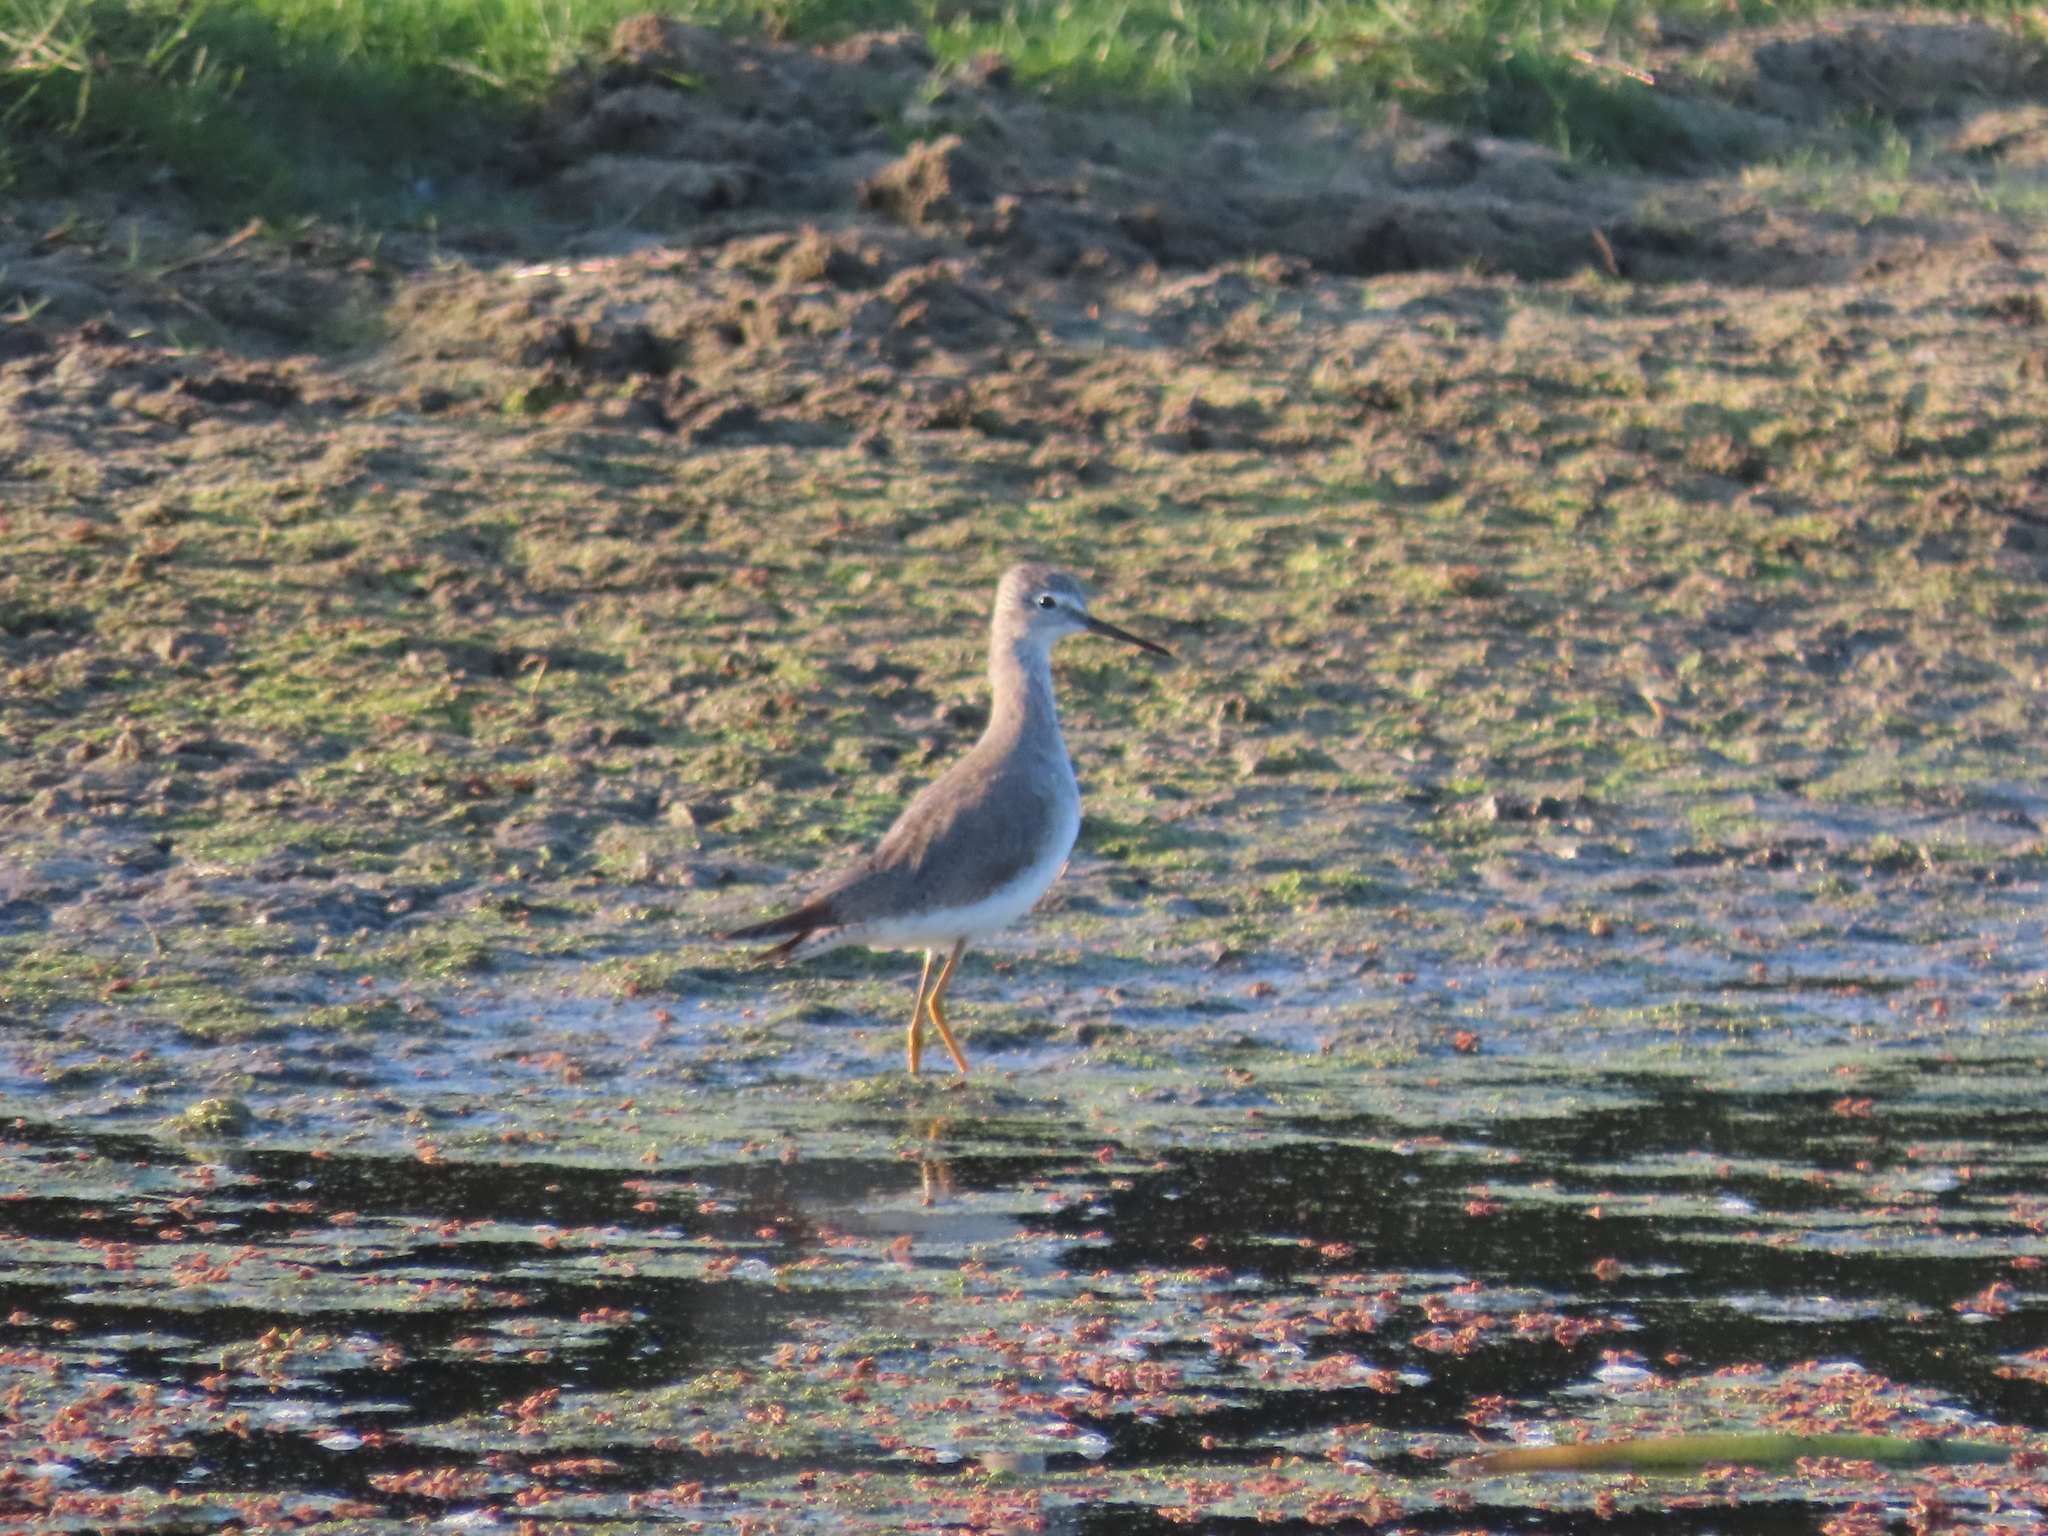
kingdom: Animalia
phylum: Chordata
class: Aves
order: Charadriiformes
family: Scolopacidae
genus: Tringa
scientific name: Tringa flavipes
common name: Lesser yellowlegs
